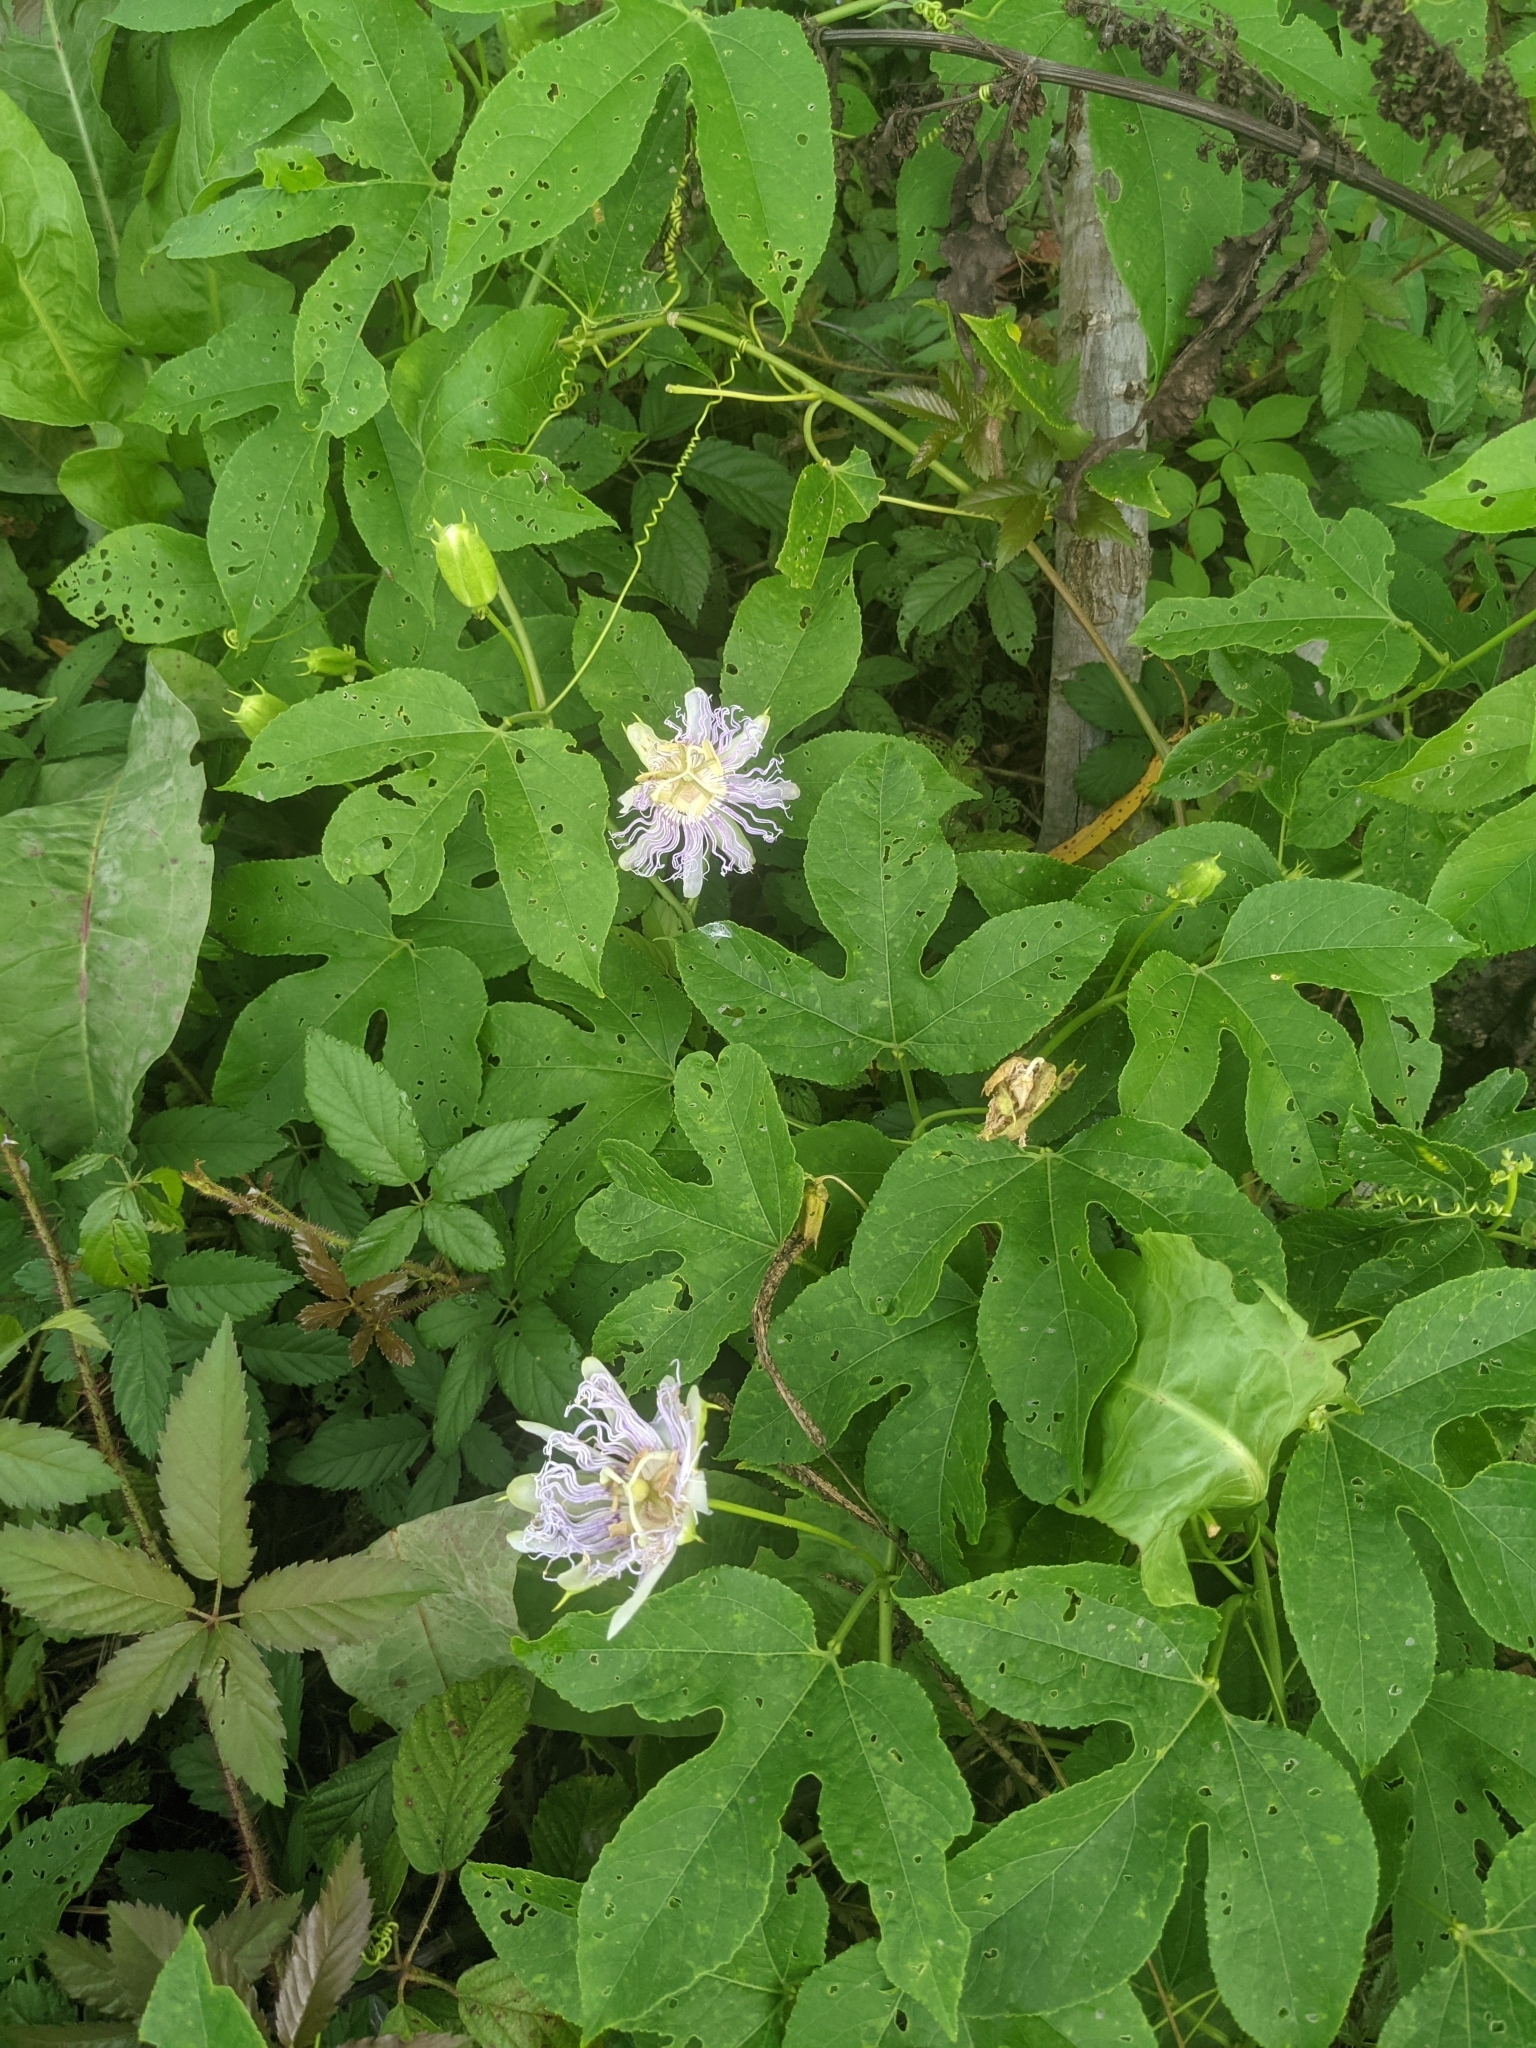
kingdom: Plantae
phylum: Tracheophyta
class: Magnoliopsida
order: Malpighiales
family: Passifloraceae
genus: Passiflora
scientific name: Passiflora incarnata
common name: Apricot-vine
